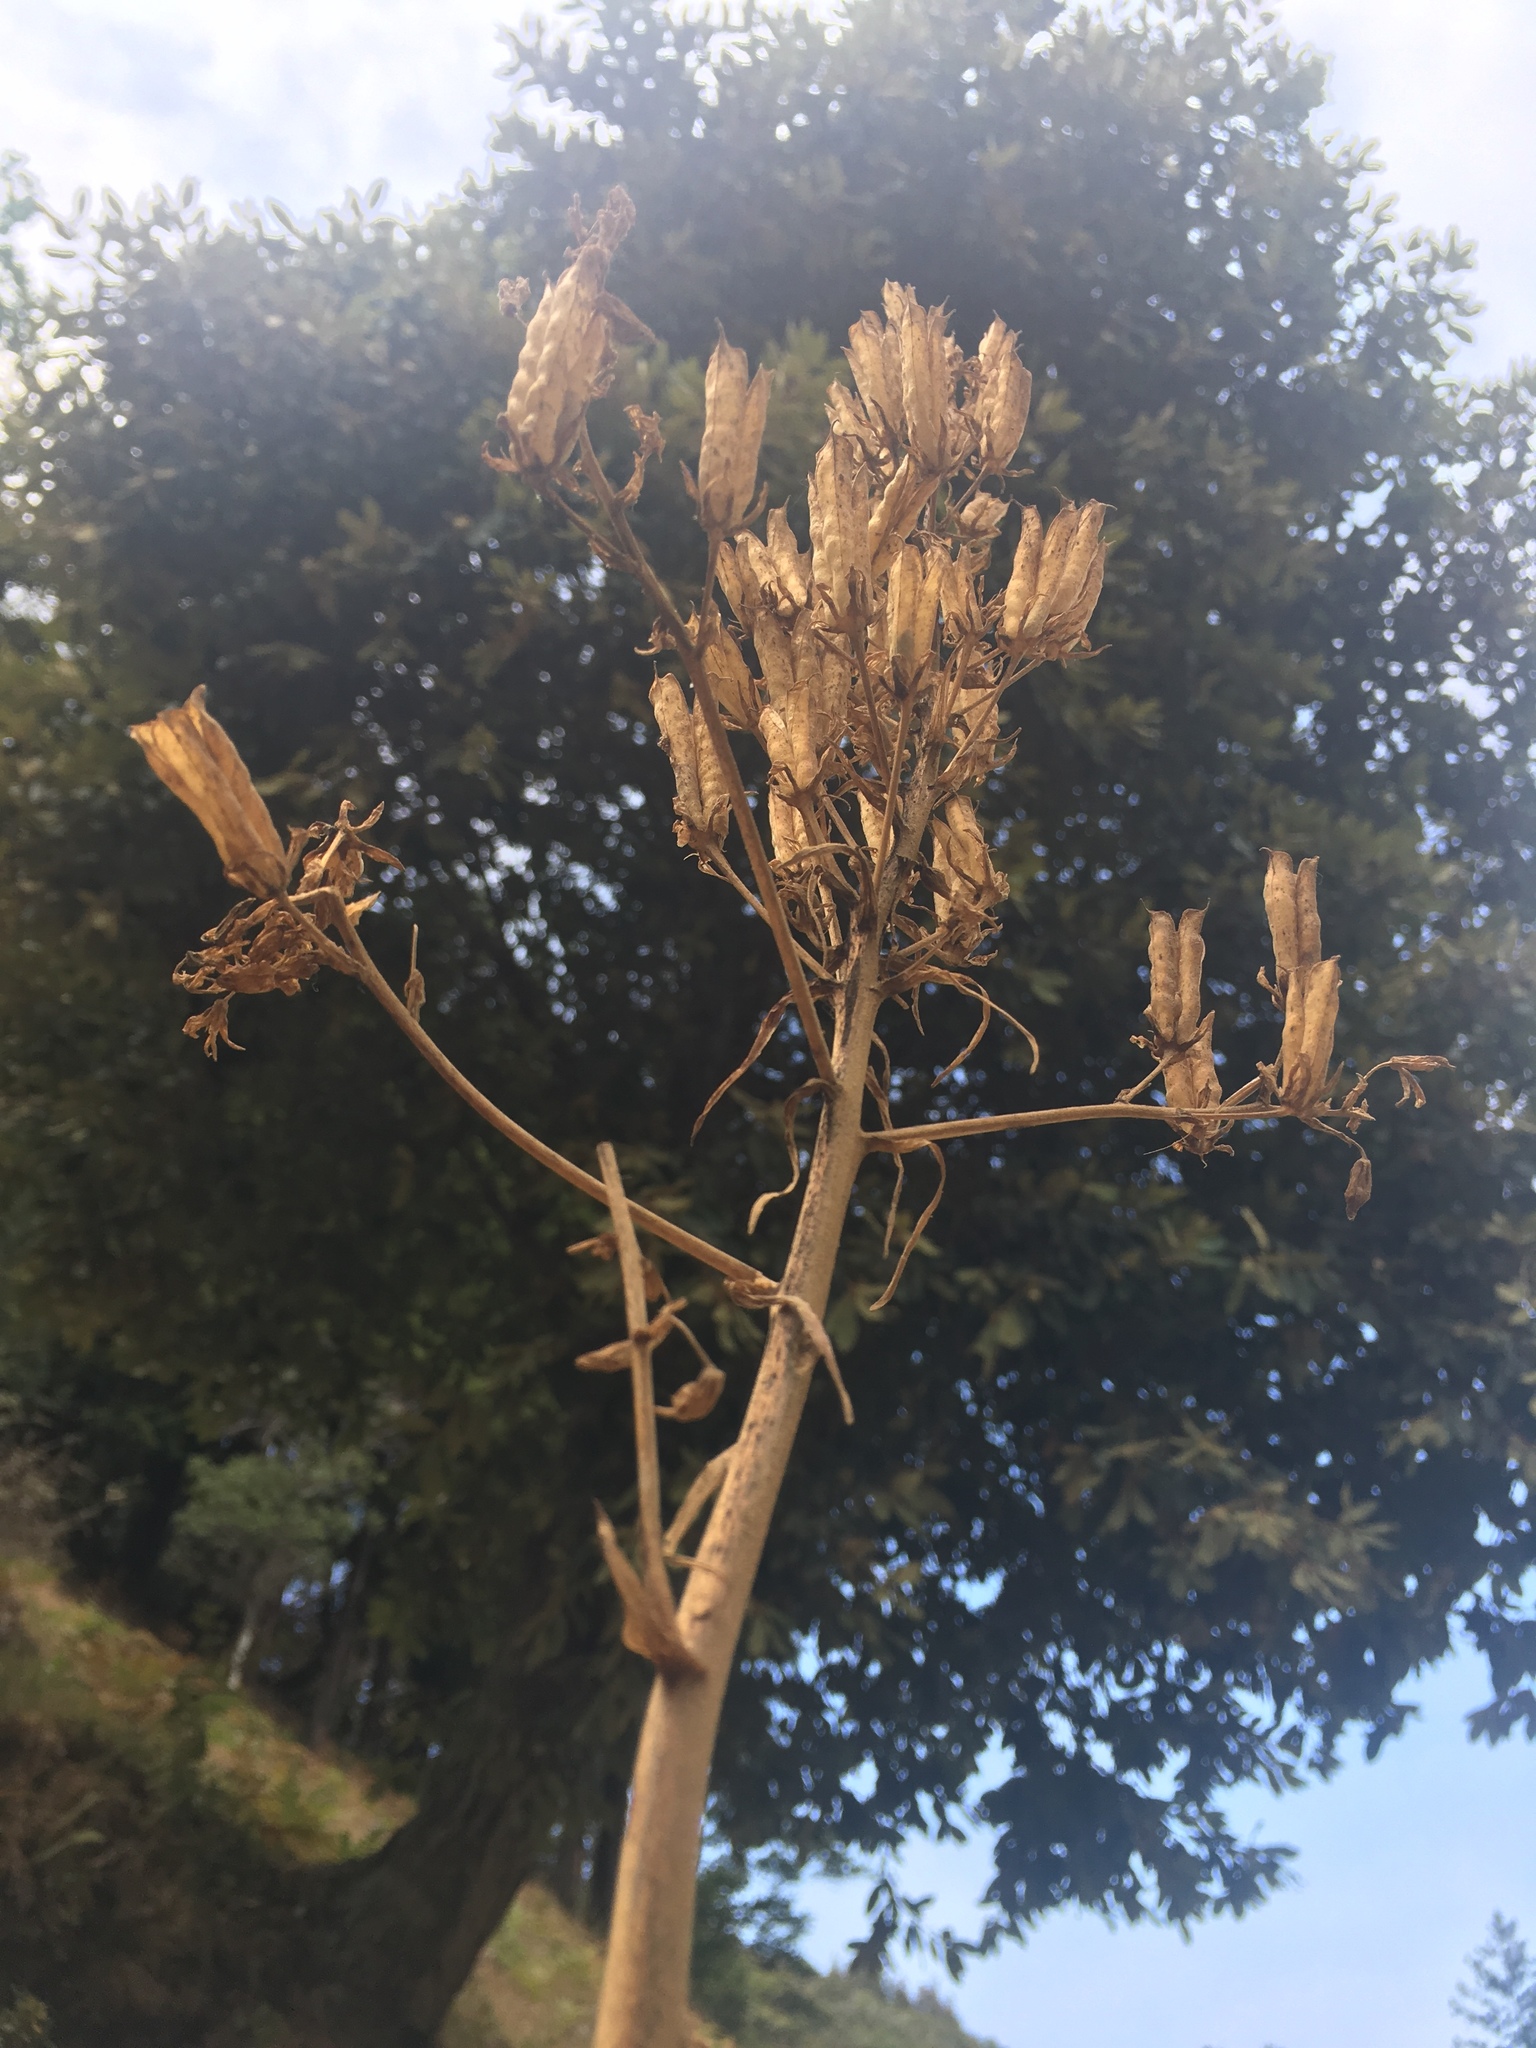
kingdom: Plantae
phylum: Tracheophyta
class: Liliopsida
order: Liliales
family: Melanthiaceae
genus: Toxicoscordion
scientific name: Toxicoscordion fremontii
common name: Fremont's death camas
